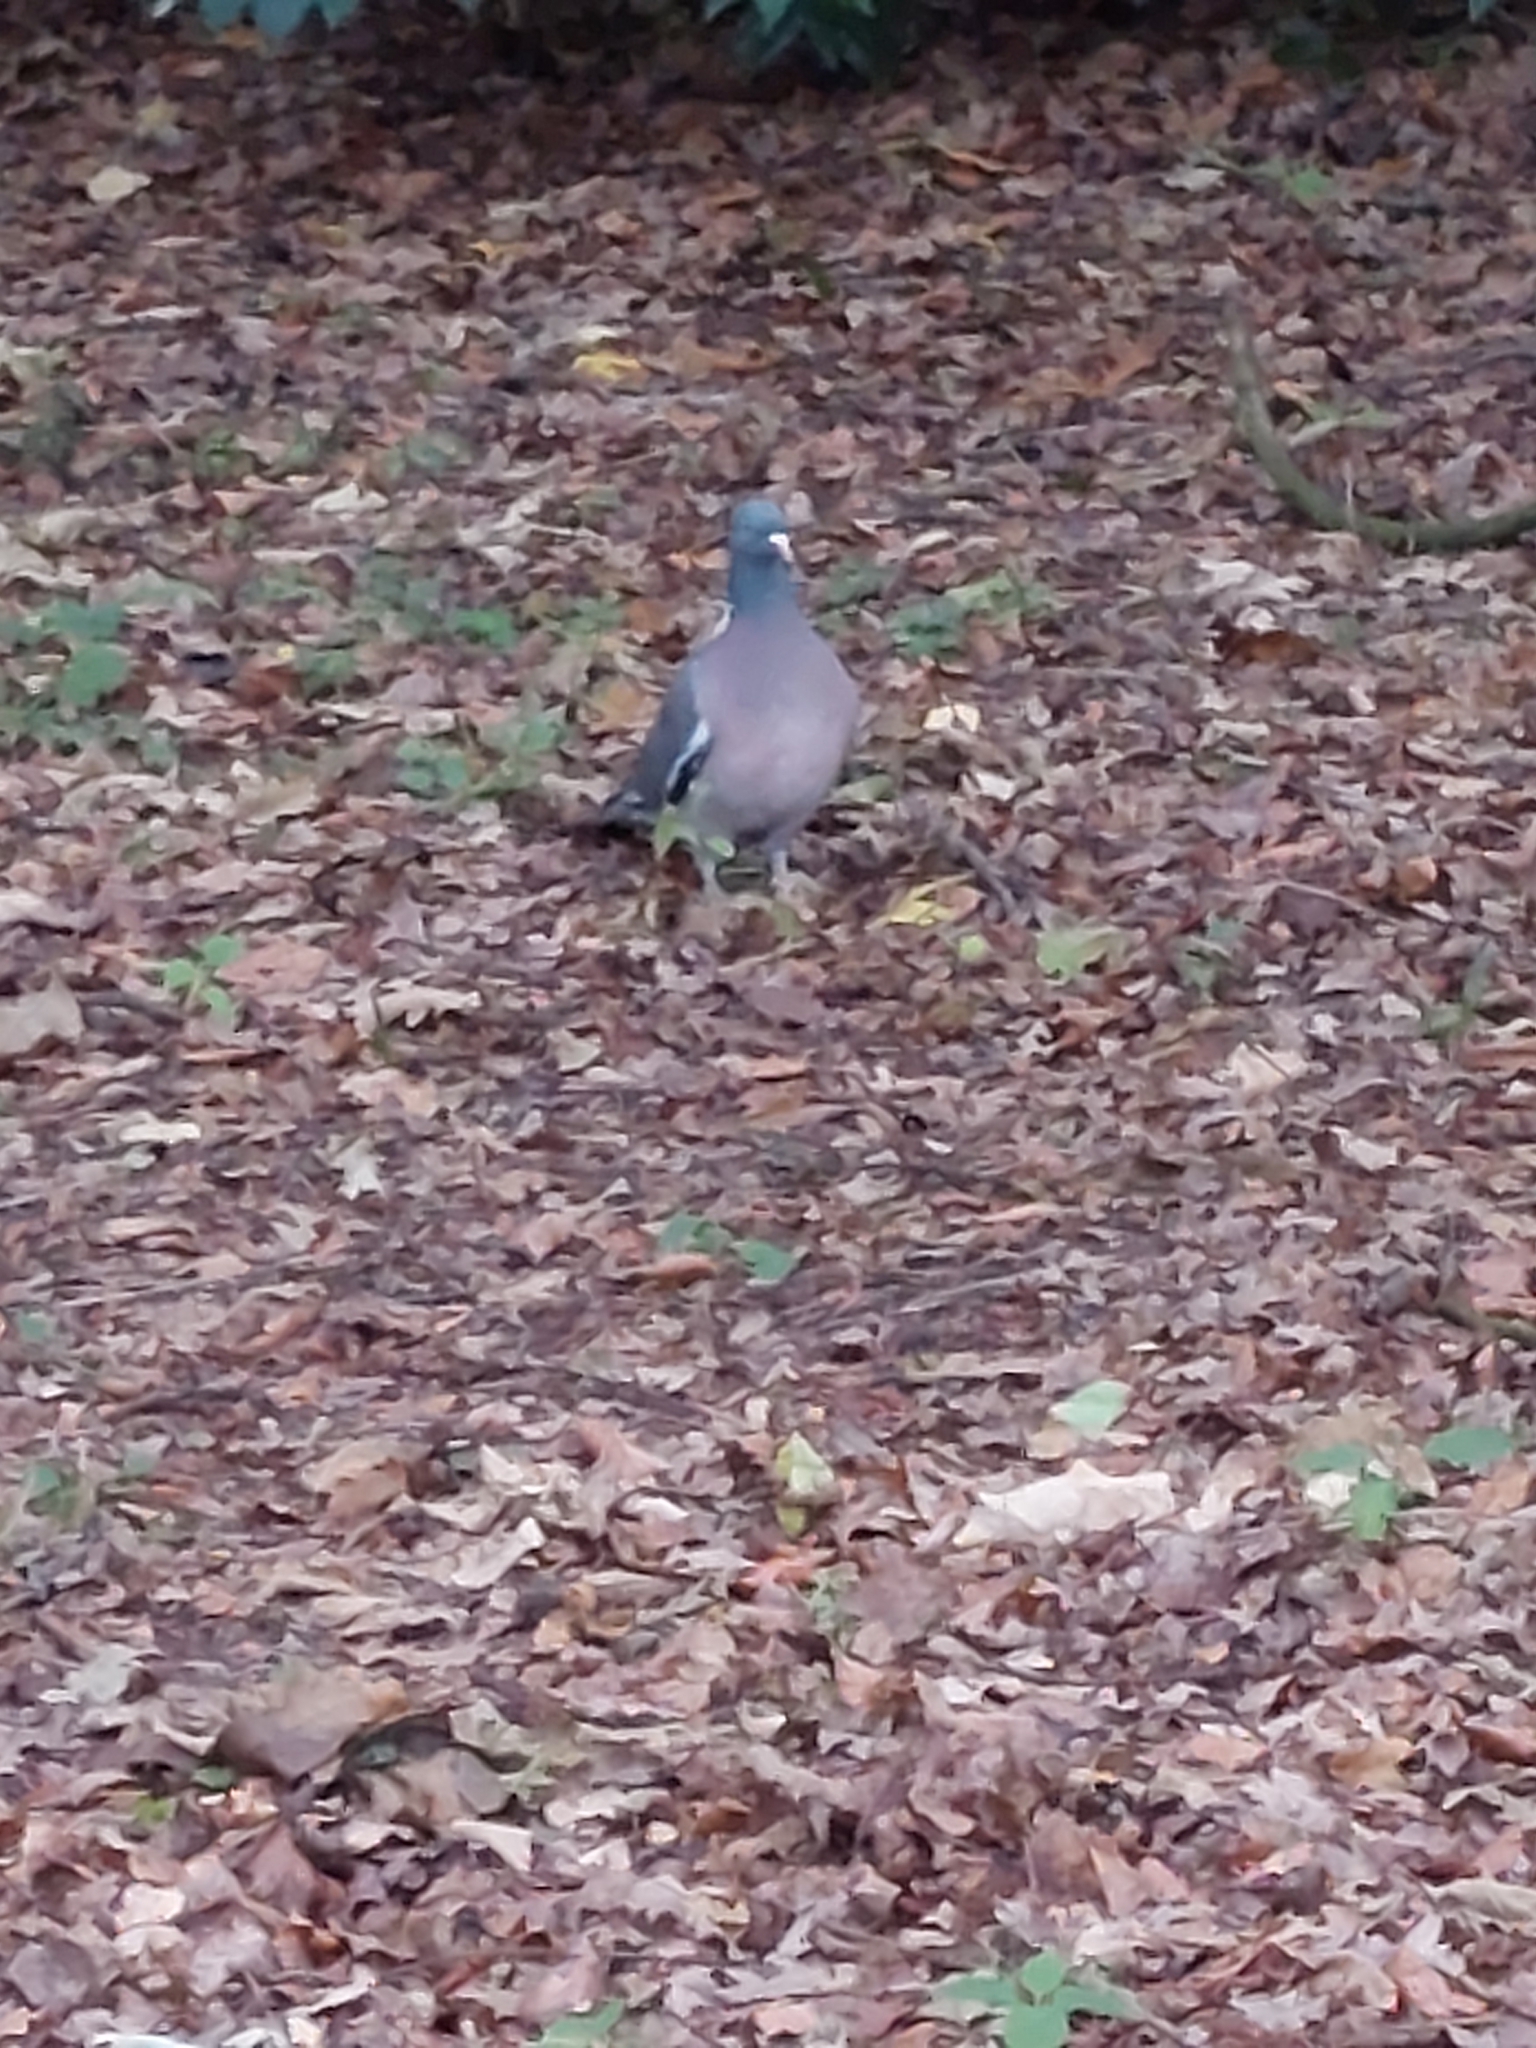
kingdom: Animalia
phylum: Chordata
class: Aves
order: Columbiformes
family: Columbidae
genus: Columba
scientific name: Columba palumbus
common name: Common wood pigeon
